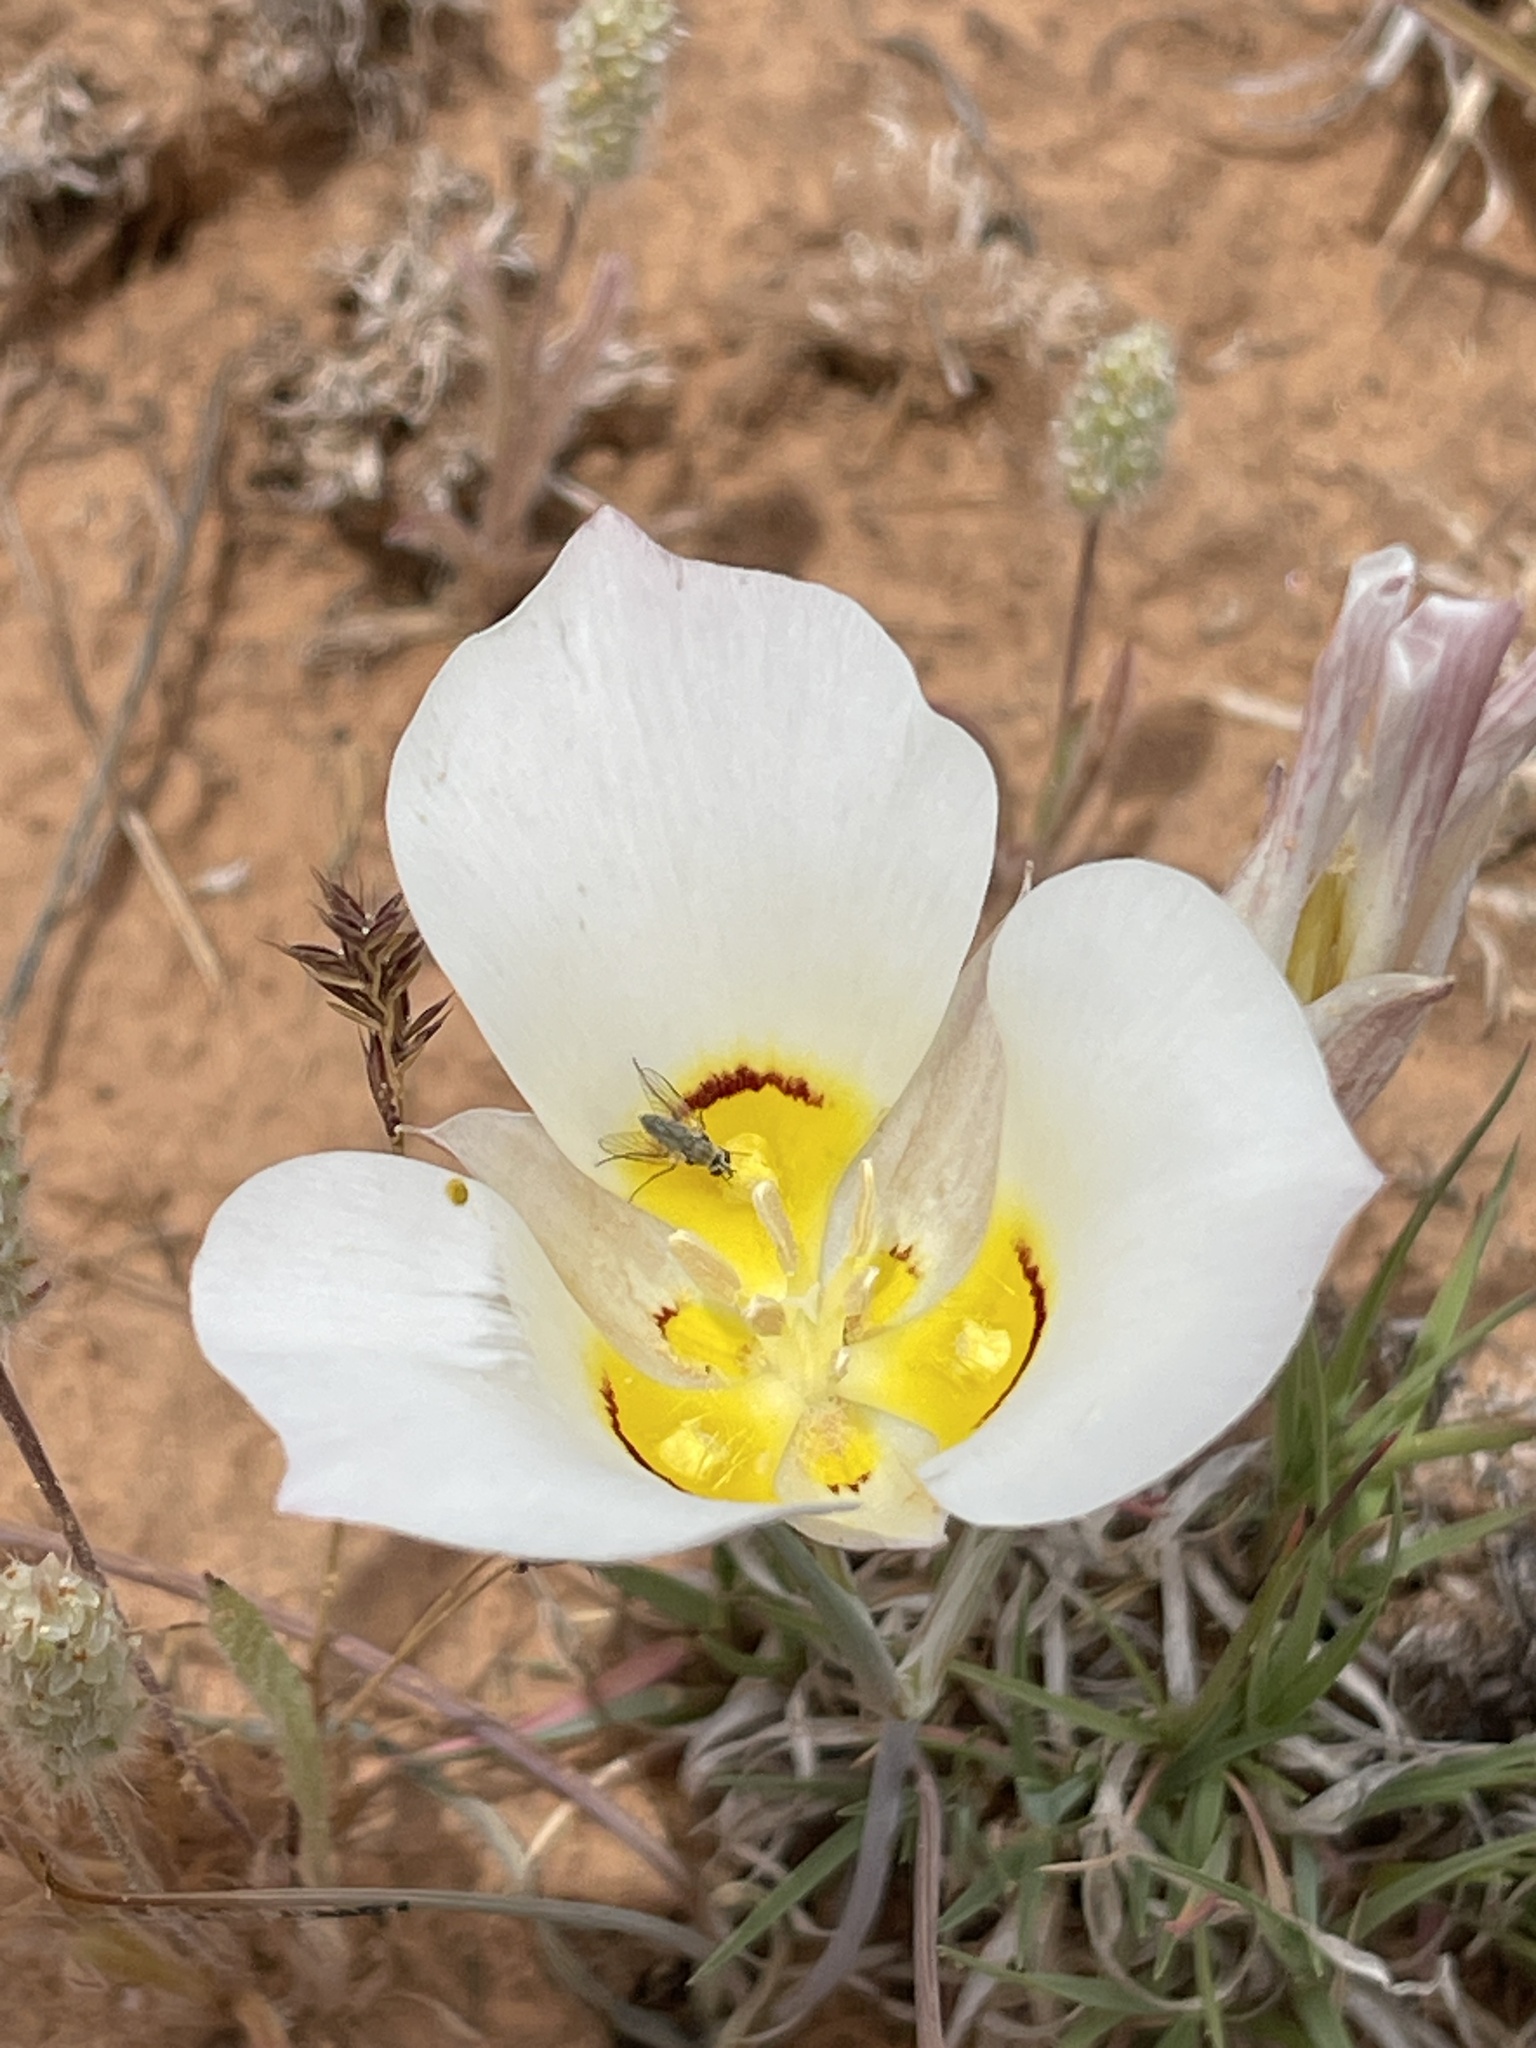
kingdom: Plantae
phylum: Tracheophyta
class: Liliopsida
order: Liliales
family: Liliaceae
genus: Calochortus
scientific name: Calochortus nuttallii
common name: Sego-lily
